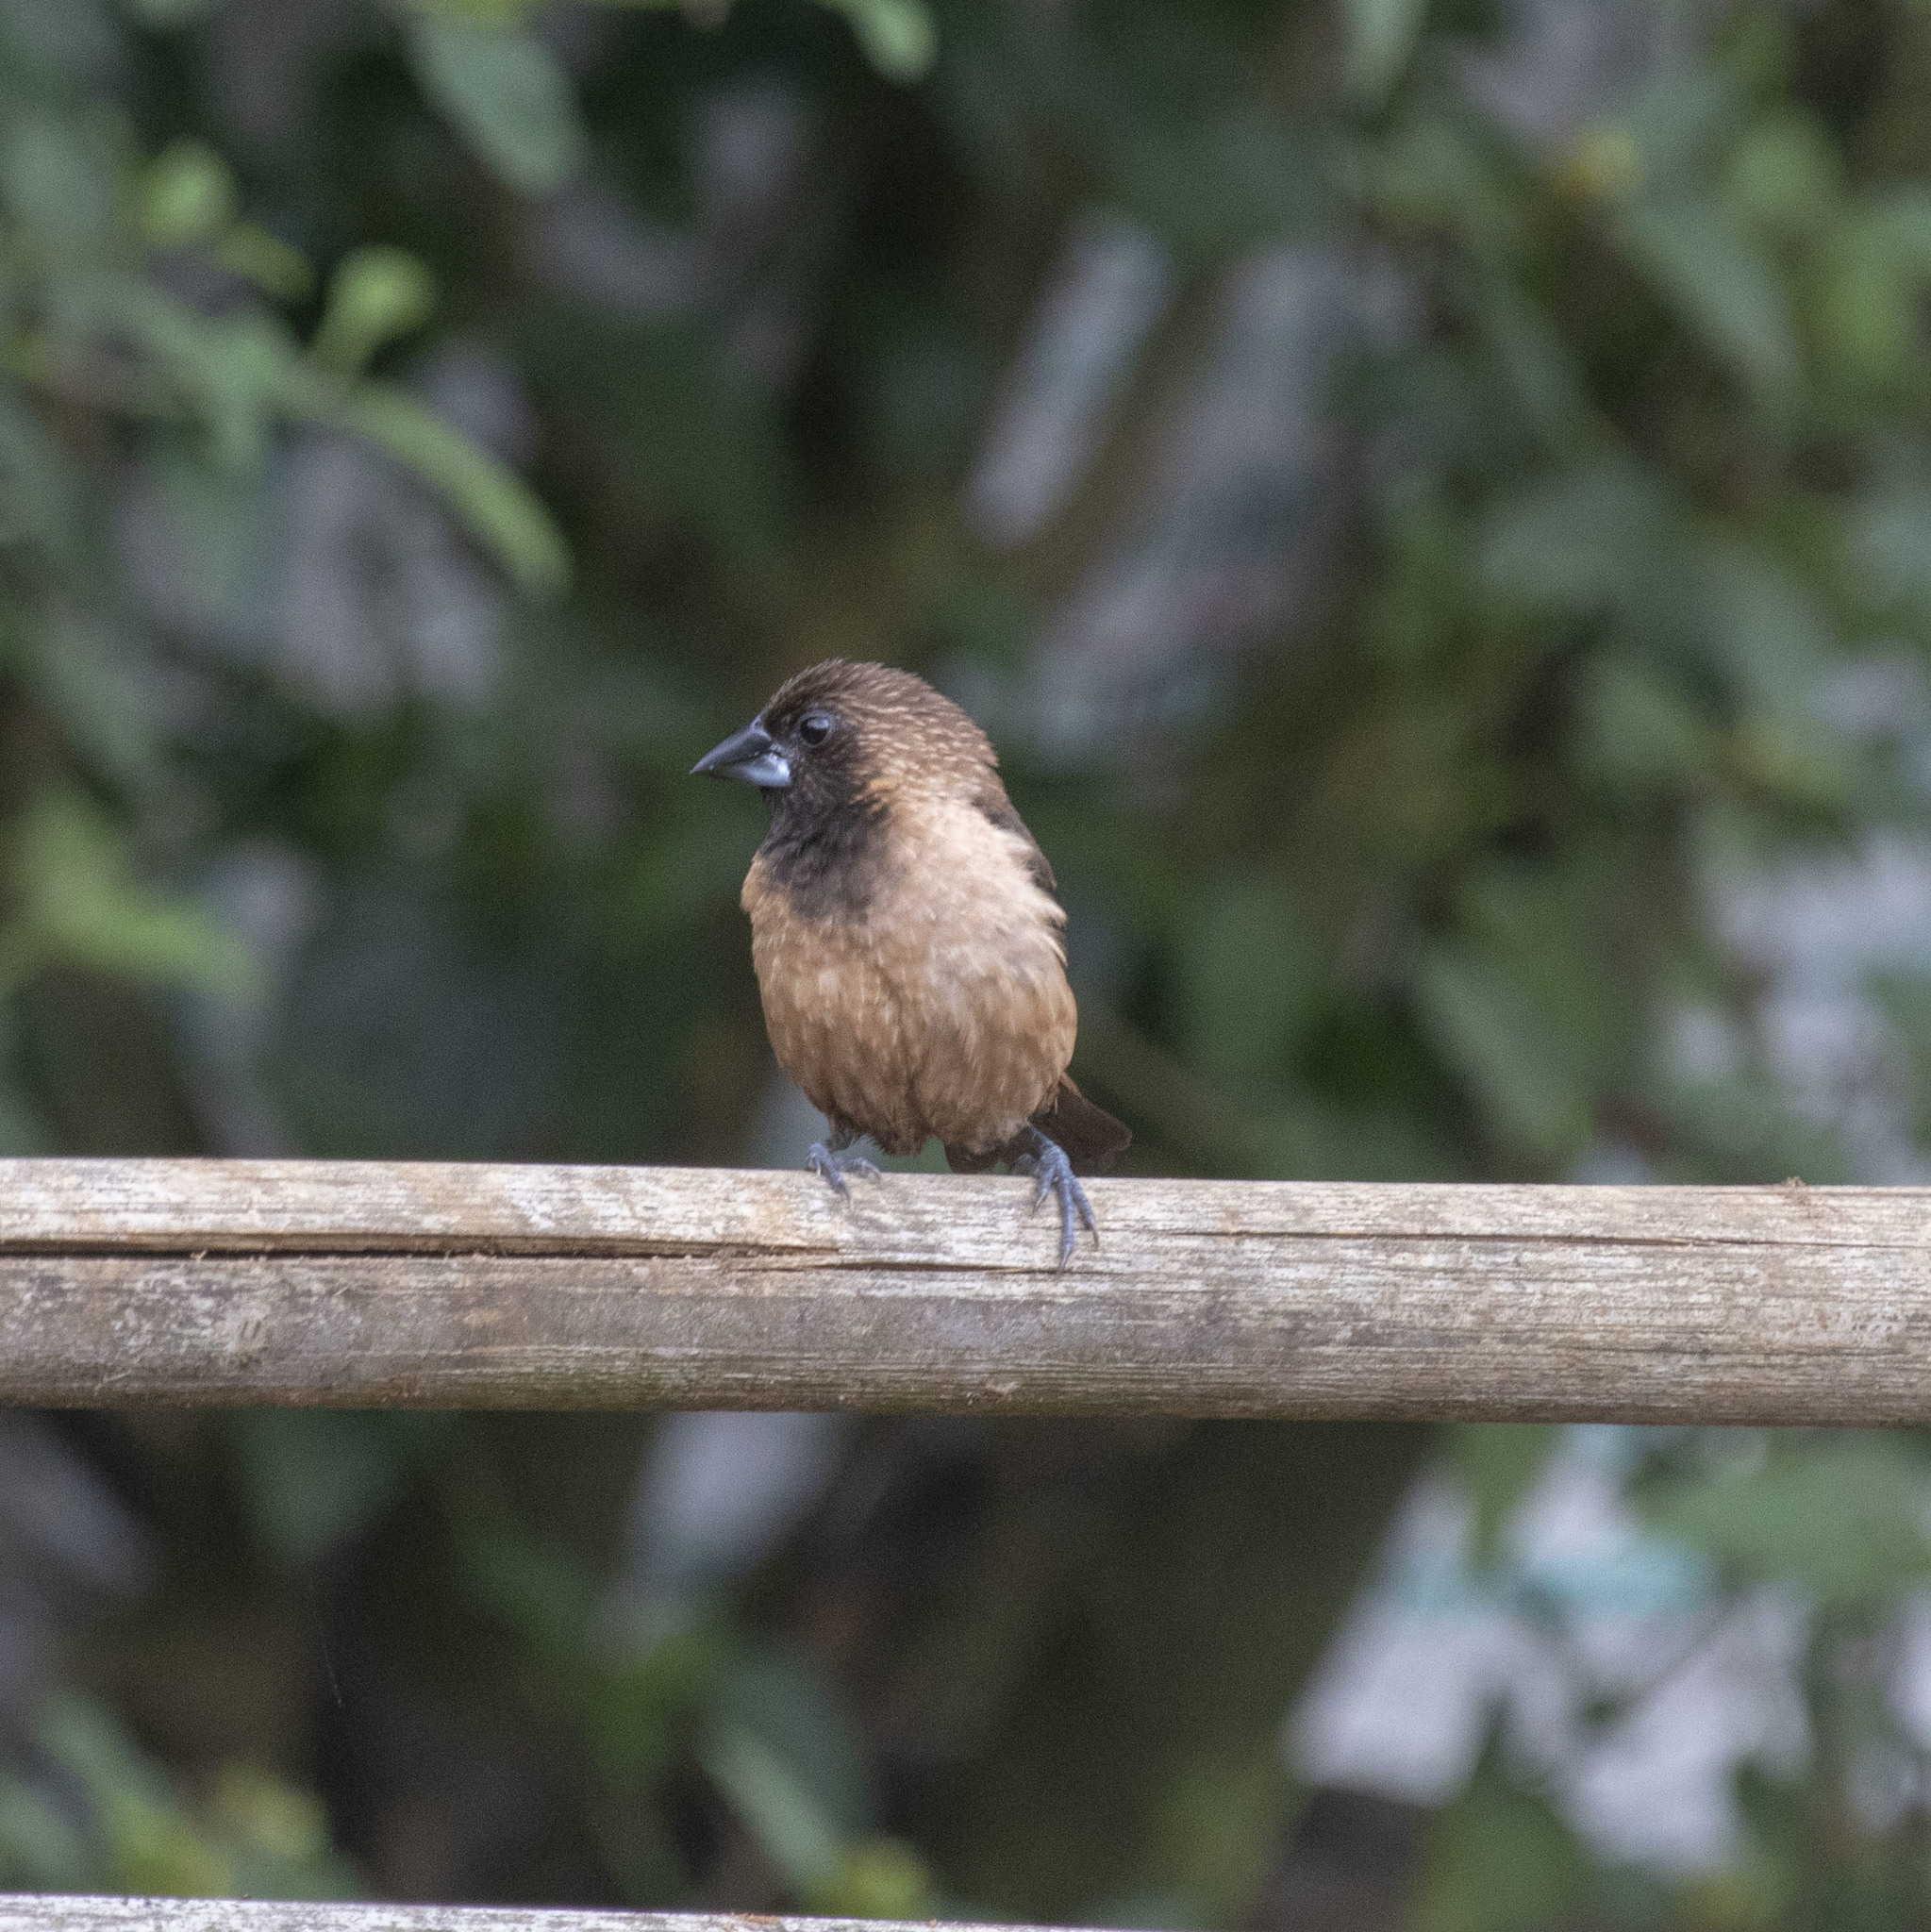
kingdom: Animalia
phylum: Chordata
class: Aves
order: Passeriformes
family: Estrildidae
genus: Lonchura
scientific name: Lonchura kelaarti
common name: Black-throated munia
